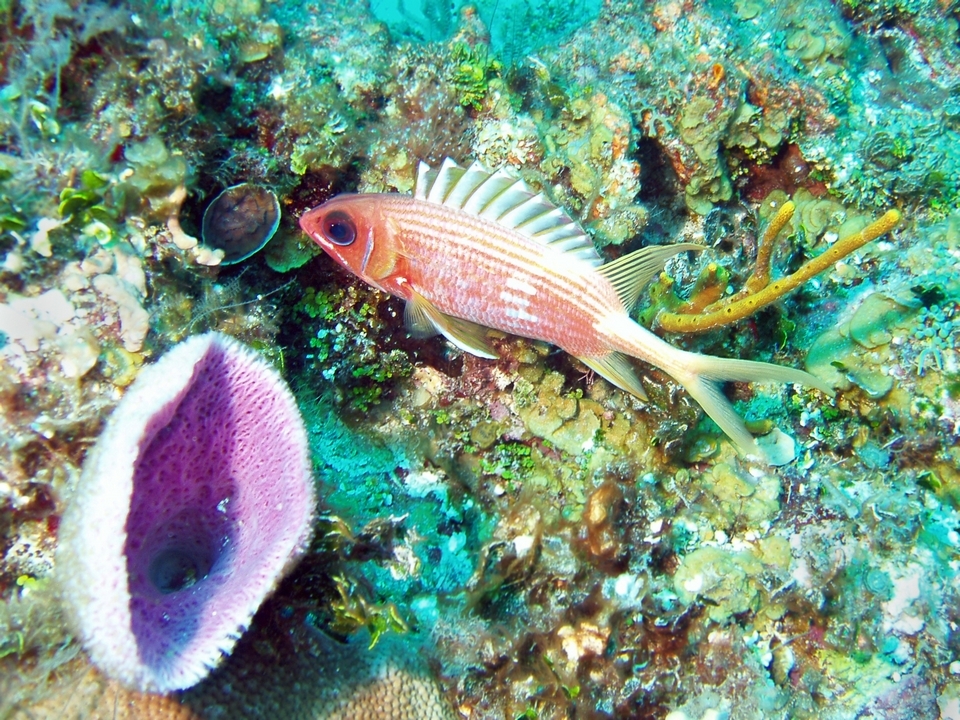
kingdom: Animalia
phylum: Chordata
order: Beryciformes
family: Holocentridae
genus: Holocentrus
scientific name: Holocentrus rufus
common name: Longspine squirrelfish
